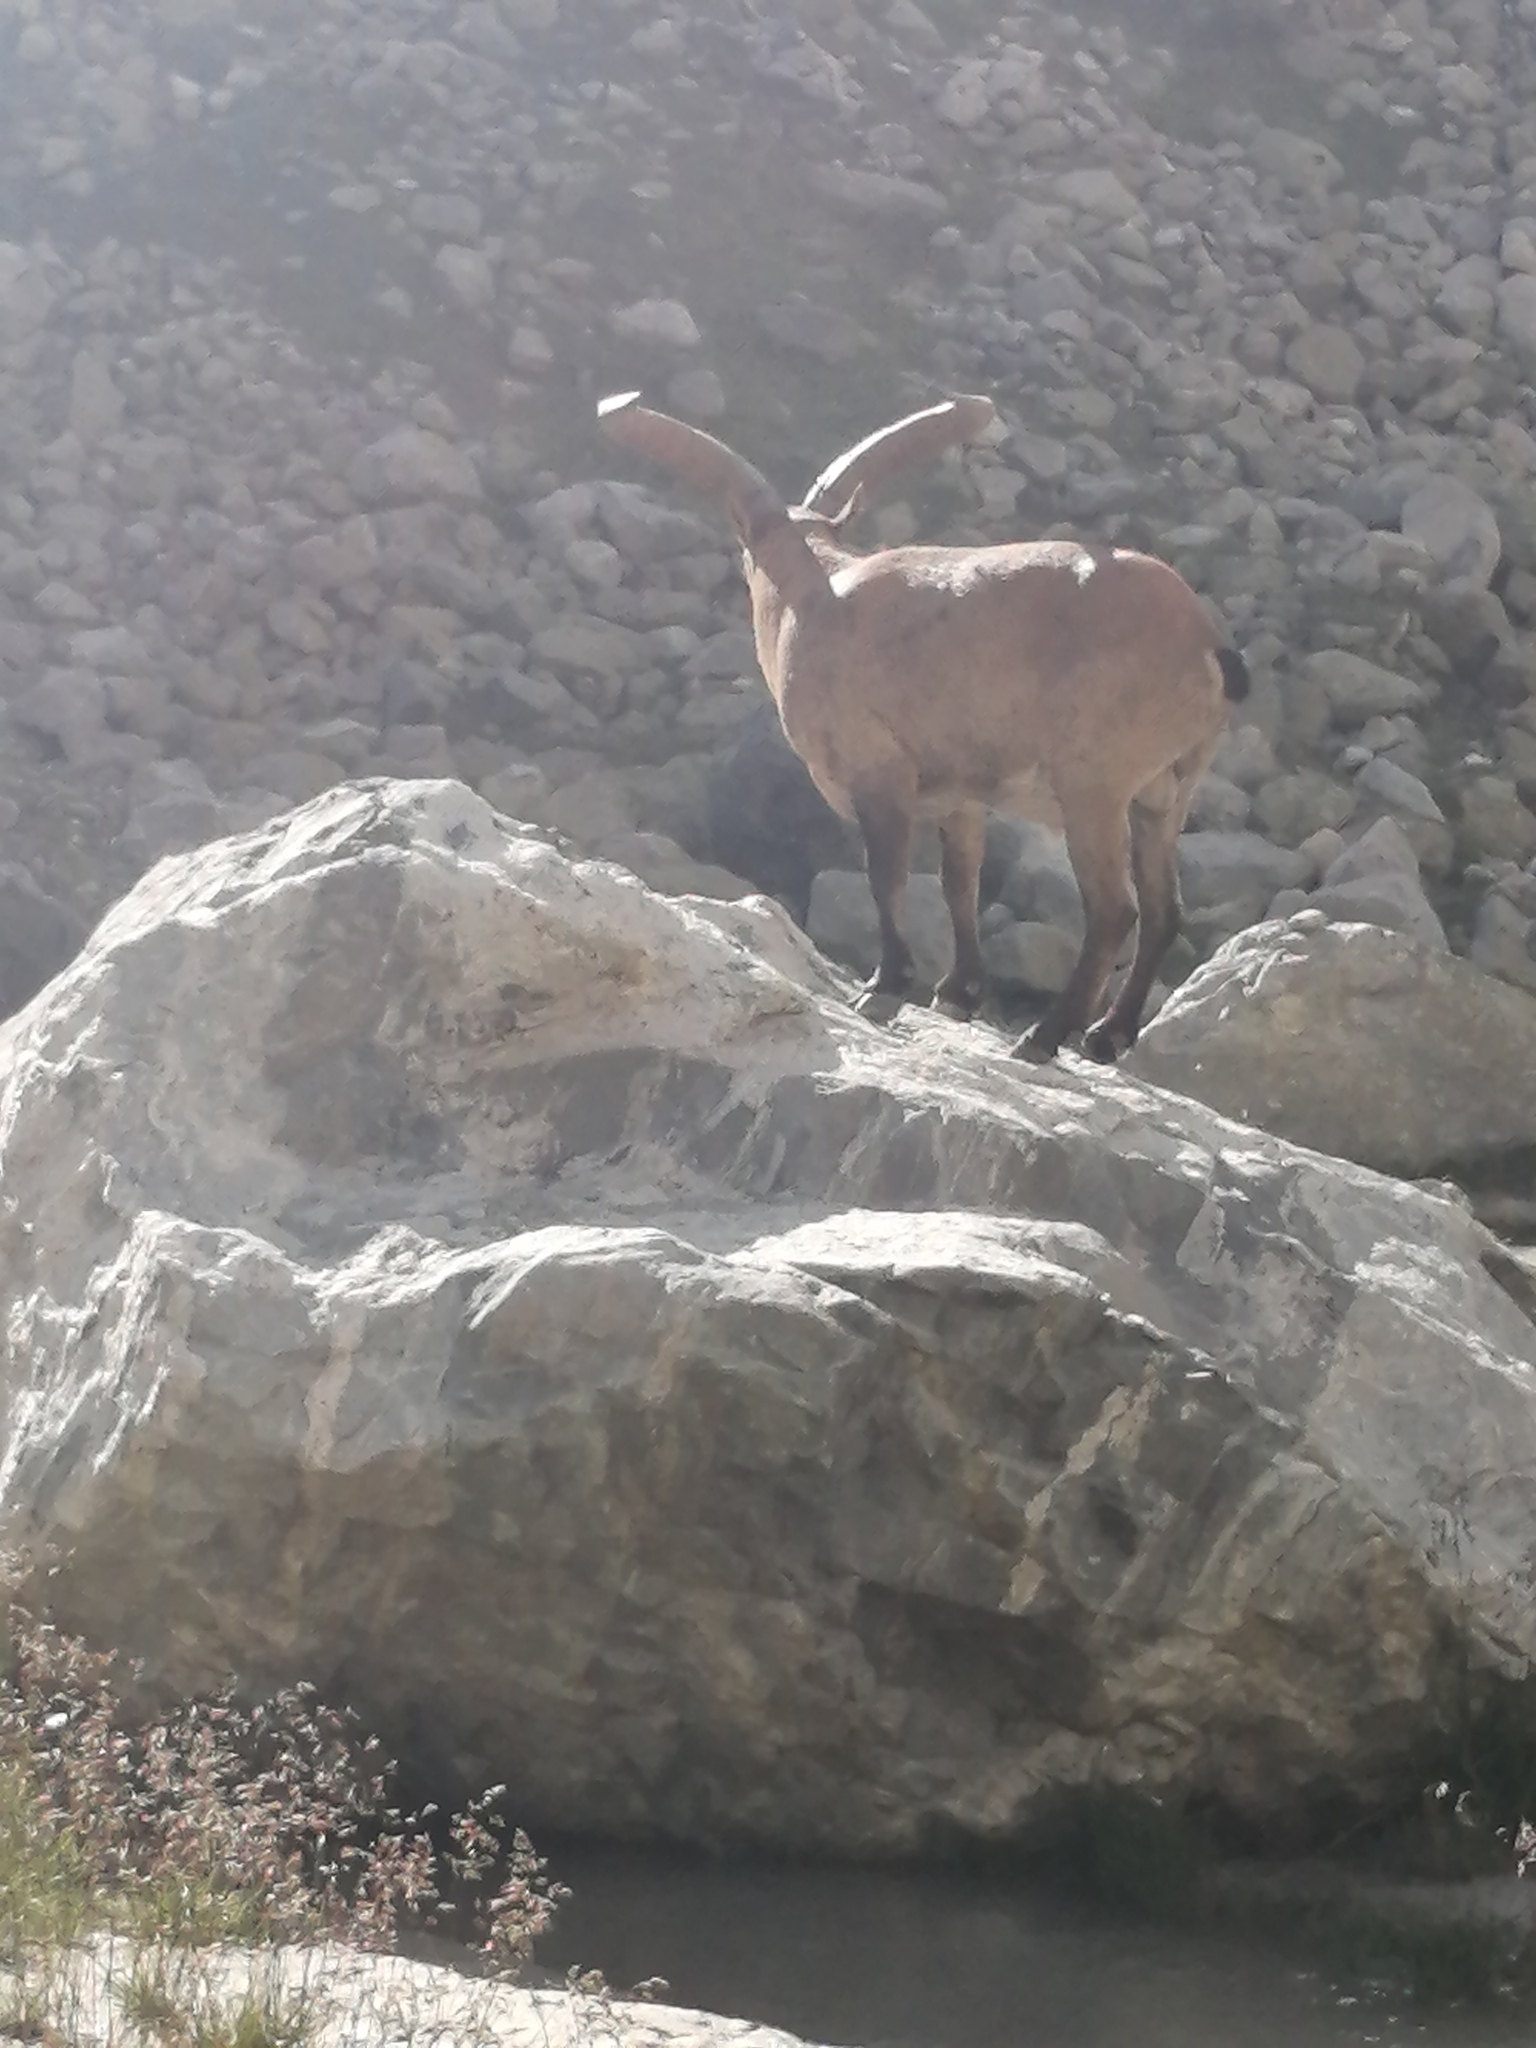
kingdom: Animalia
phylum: Chordata
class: Mammalia
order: Artiodactyla
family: Bovidae
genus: Capra
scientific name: Capra caucasica
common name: Tur
